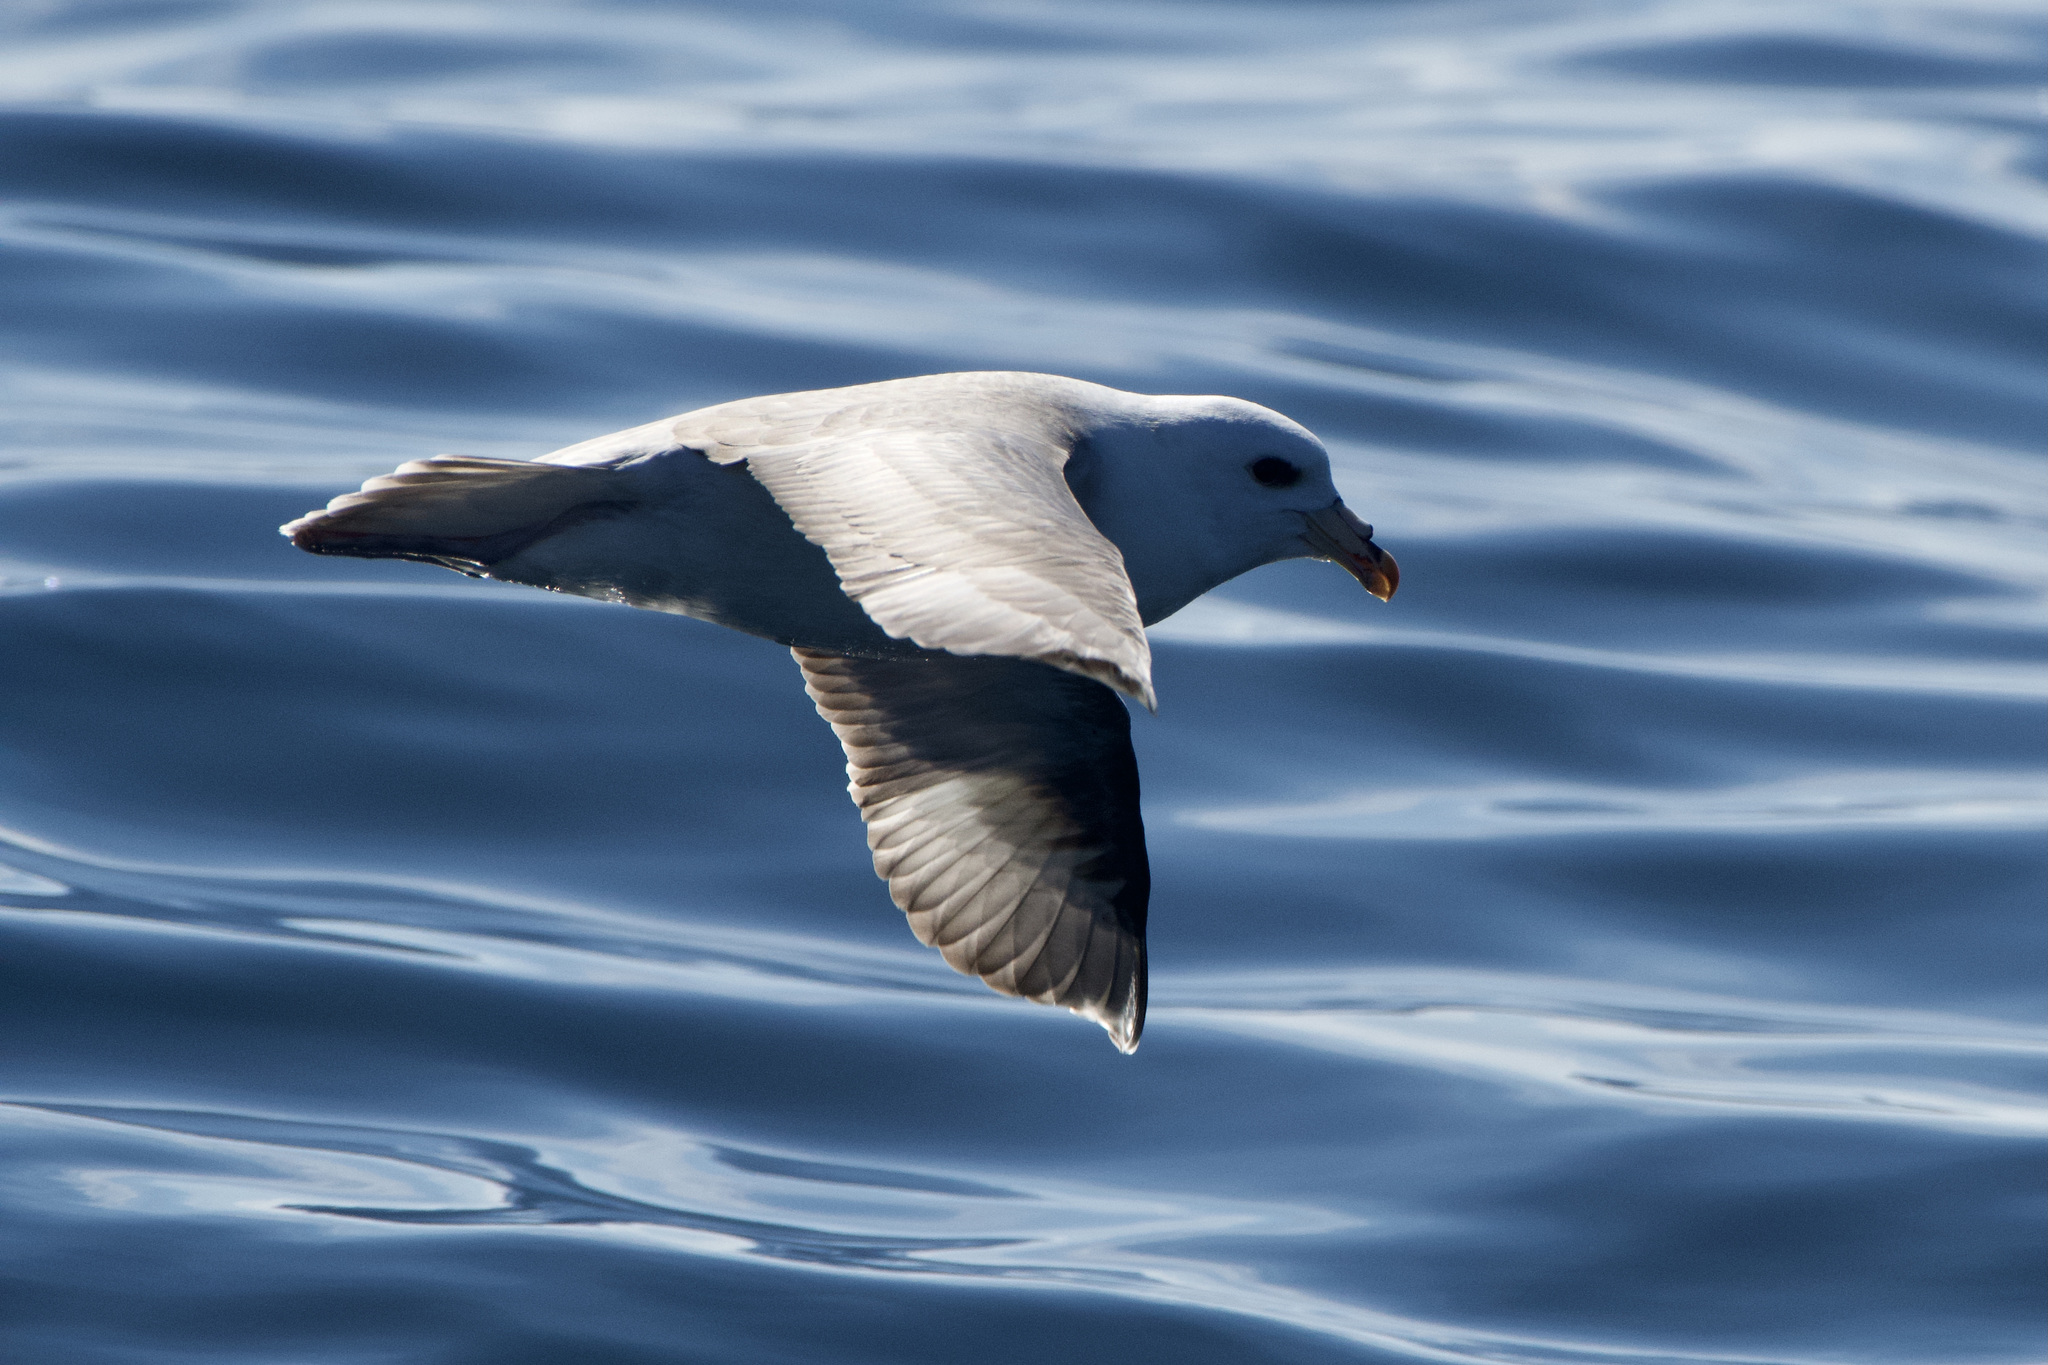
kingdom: Animalia
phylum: Chordata
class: Aves
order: Procellariiformes
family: Procellariidae
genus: Fulmarus
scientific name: Fulmarus glacialis
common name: Northern fulmar
